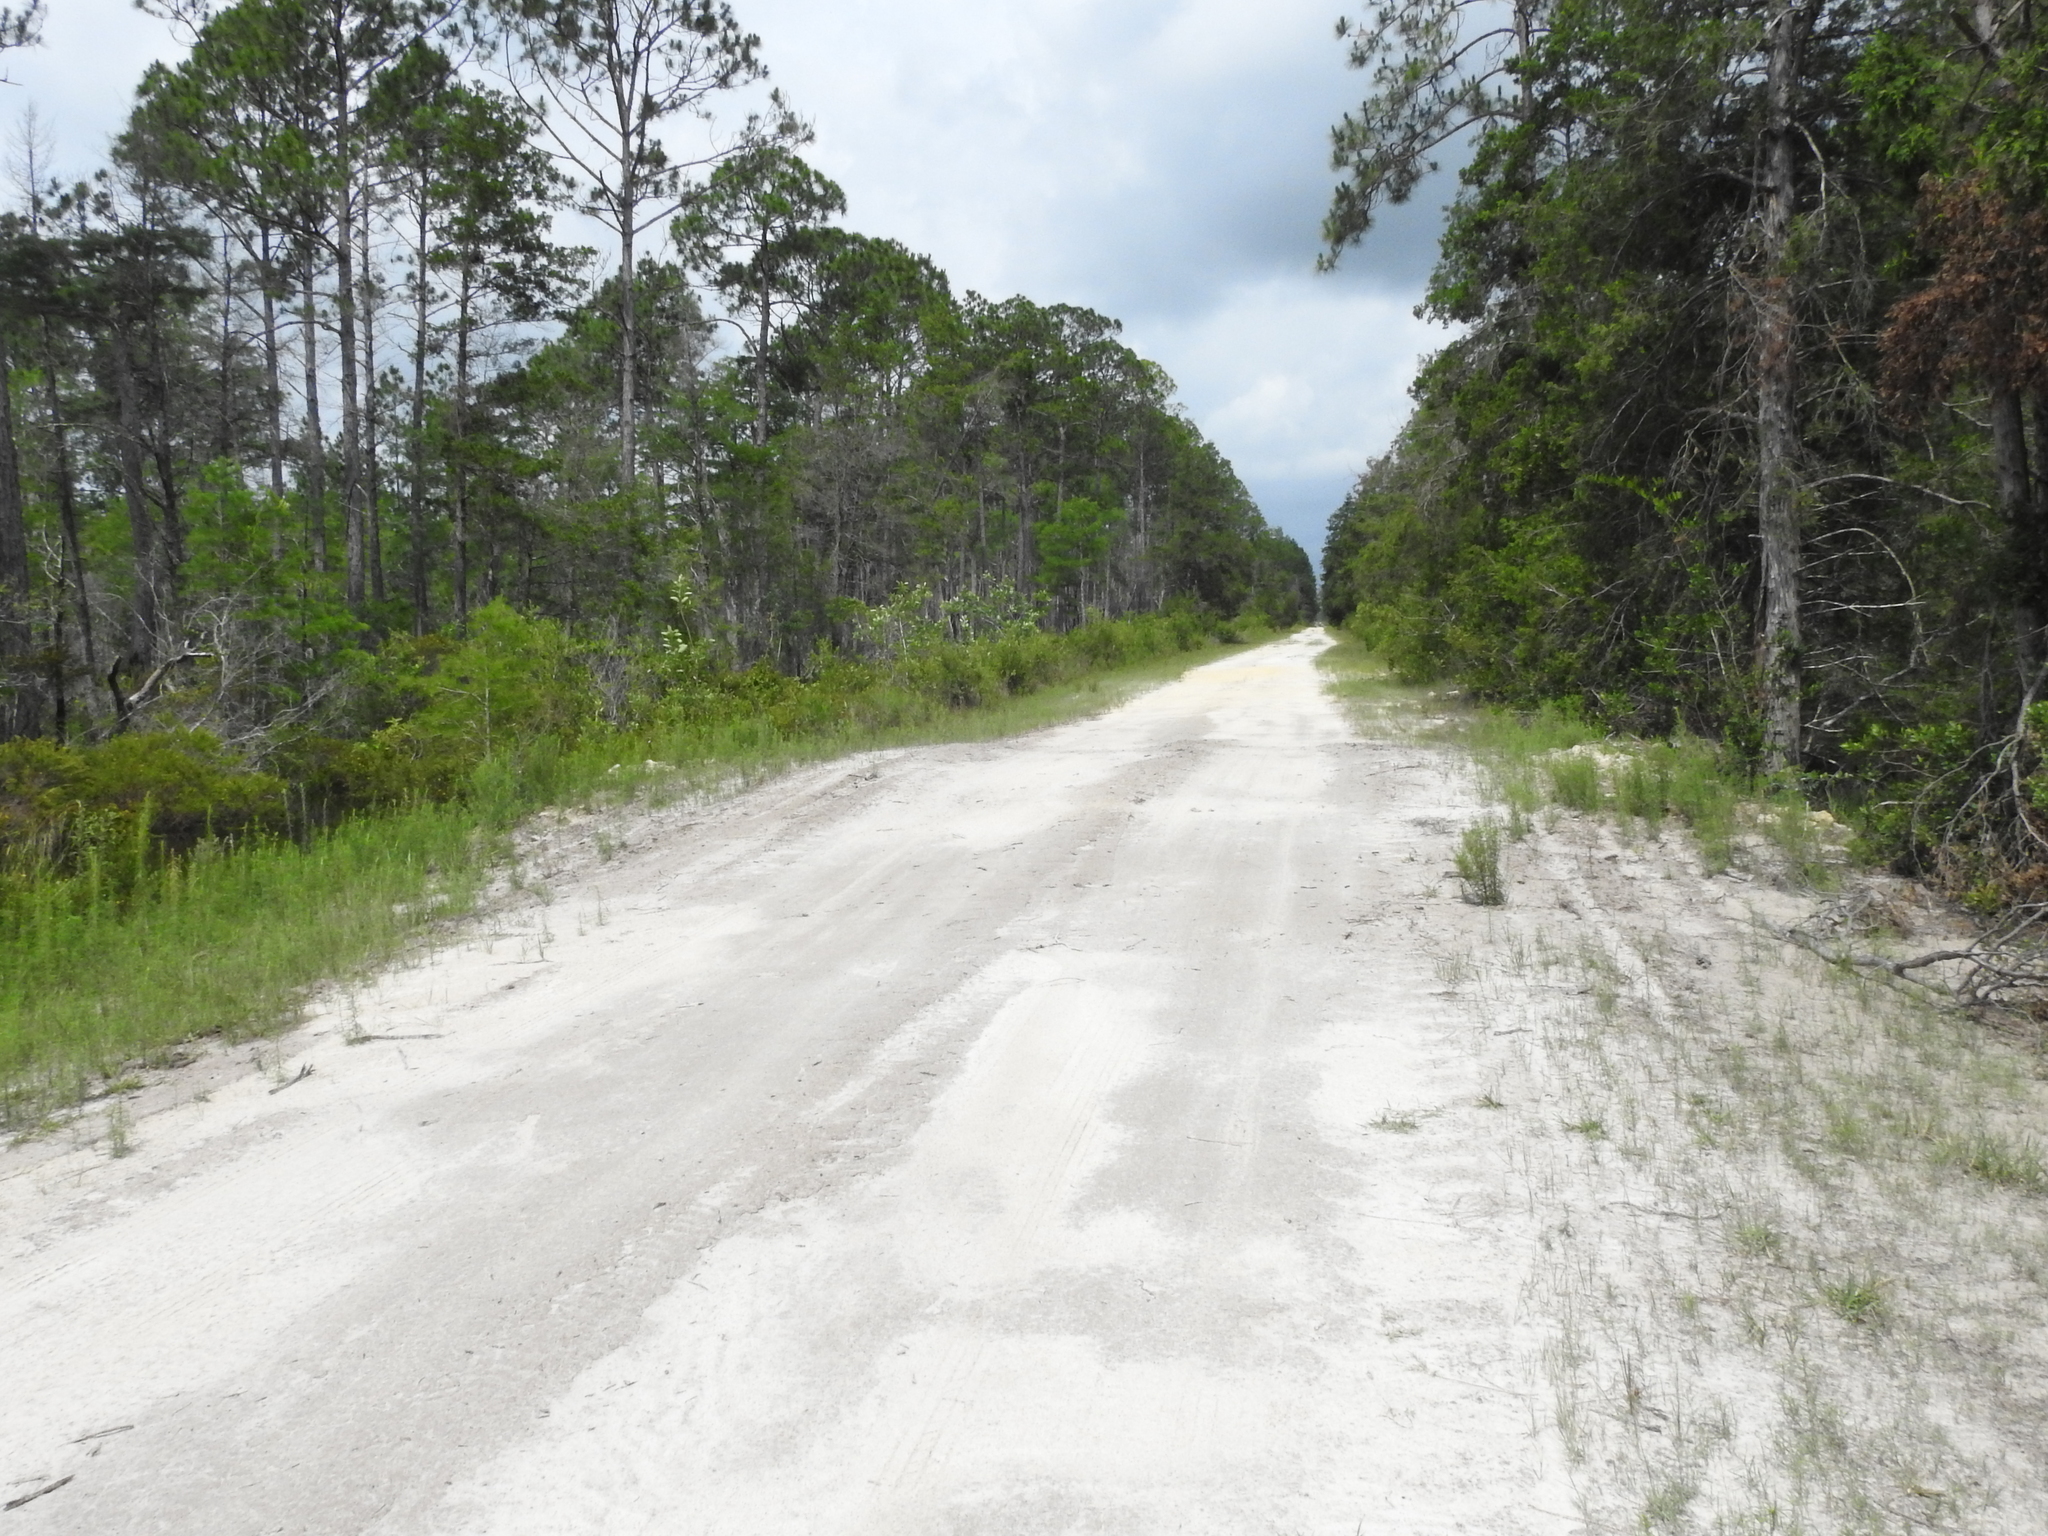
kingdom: Animalia
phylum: Arthropoda
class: Insecta
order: Odonata
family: Gomphidae
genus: Progomphus
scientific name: Progomphus bellei
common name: Belle's sanddragon
